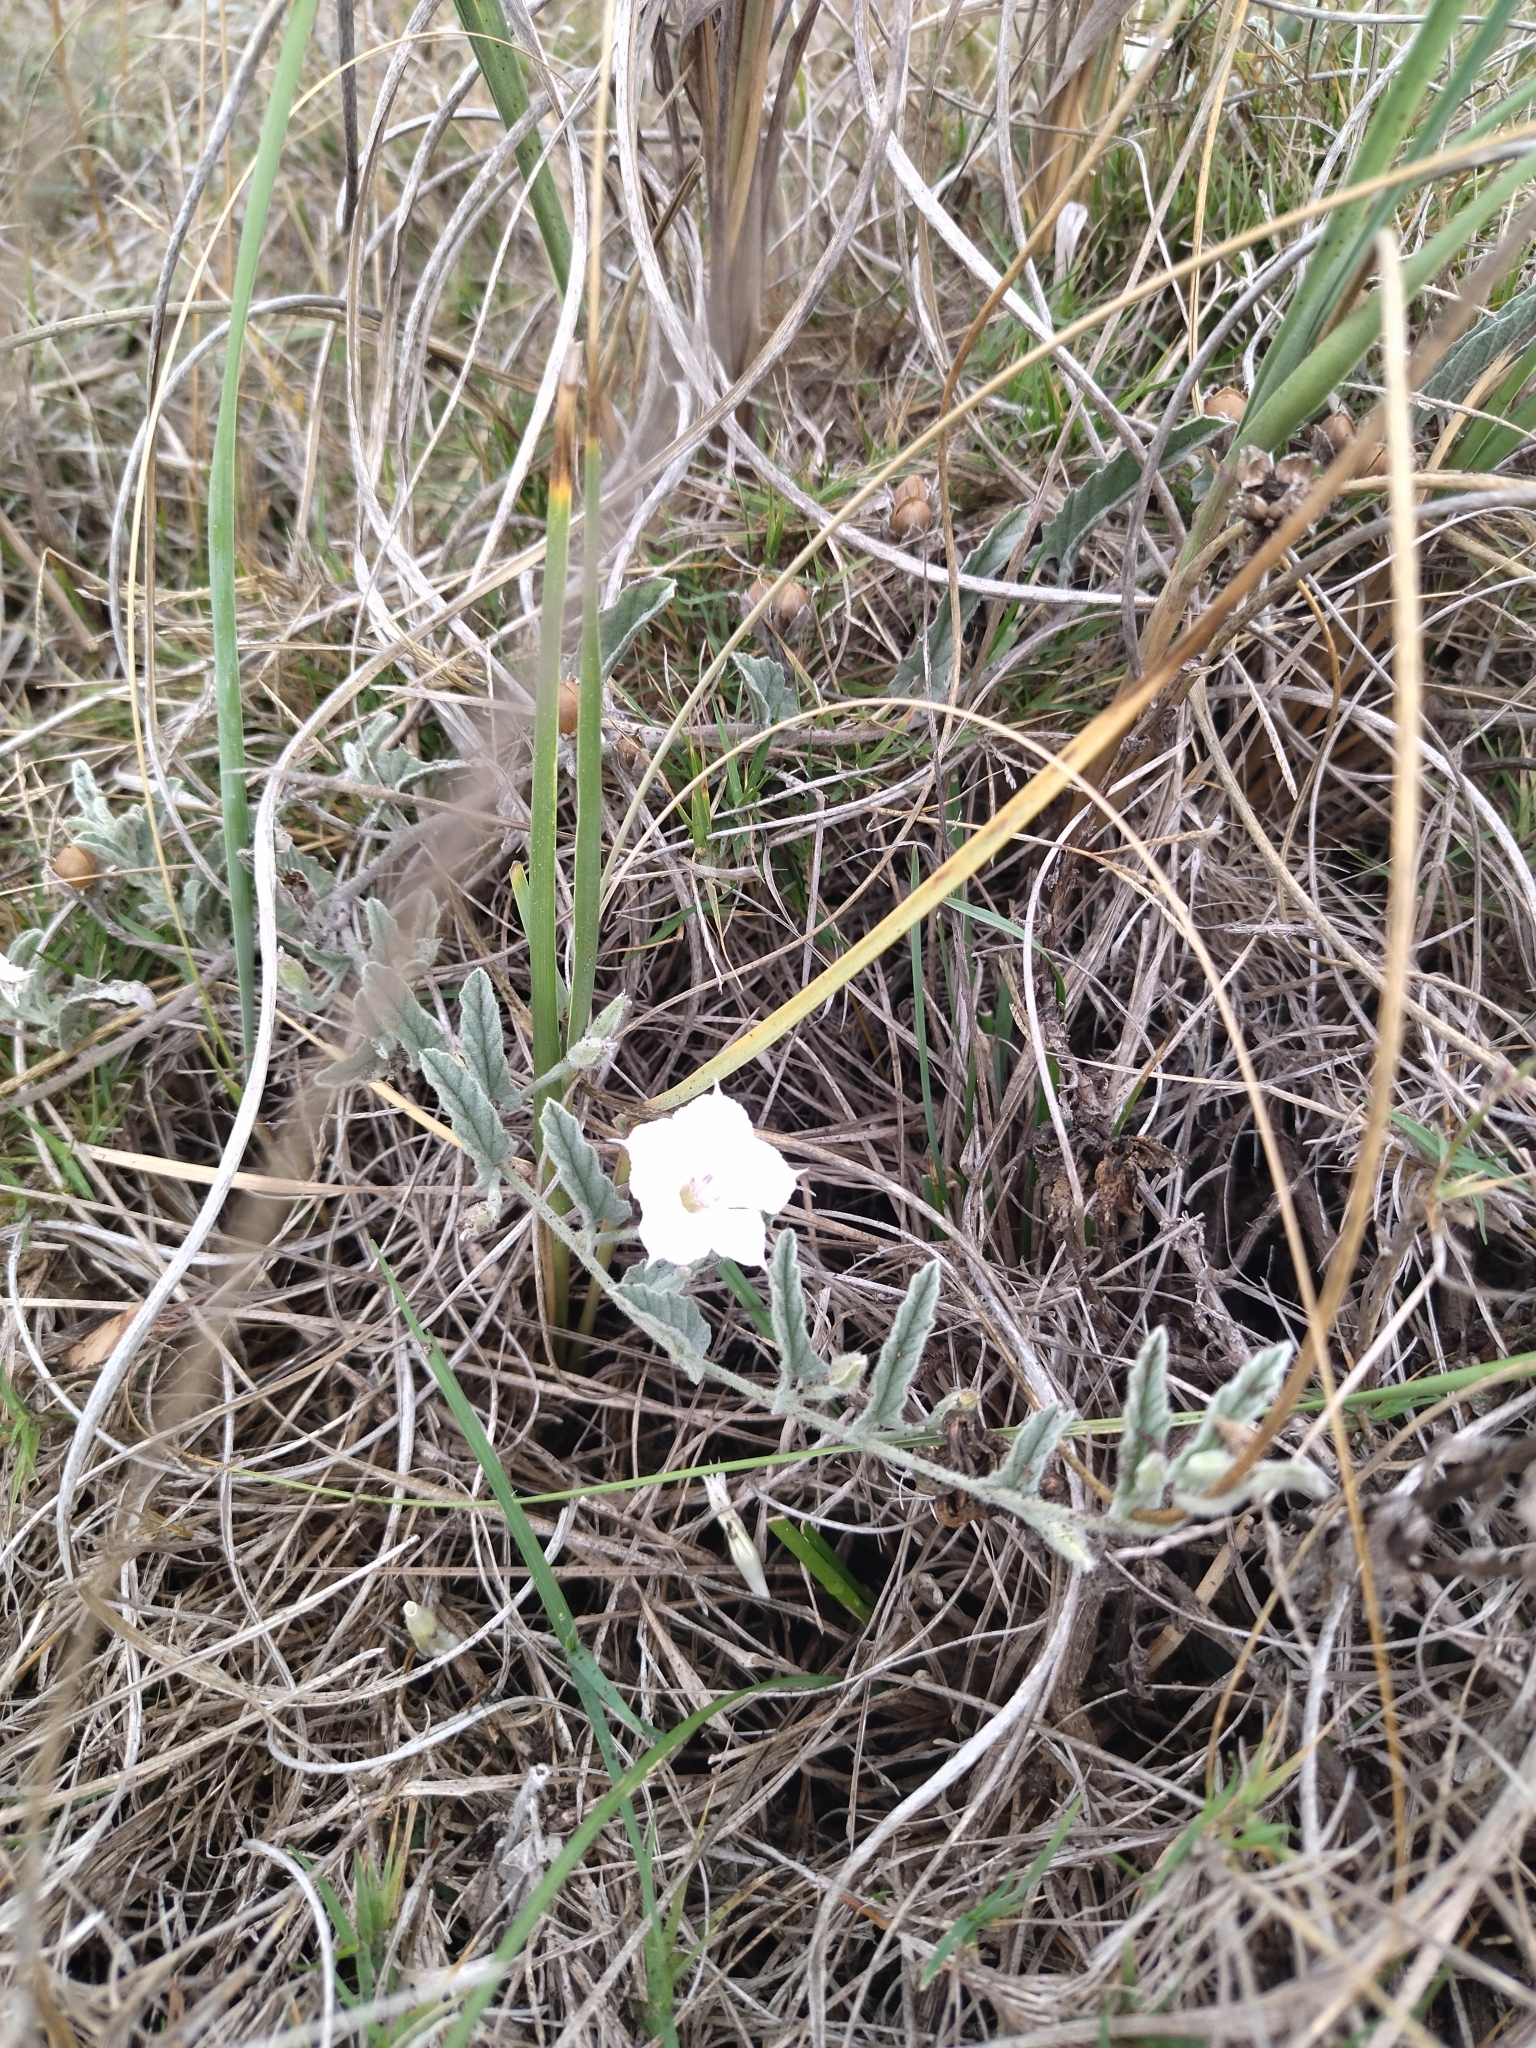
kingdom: Plantae
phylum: Tracheophyta
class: Magnoliopsida
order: Solanales
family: Convolvulaceae
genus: Convolvulus
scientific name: Convolvulus hermanniae
